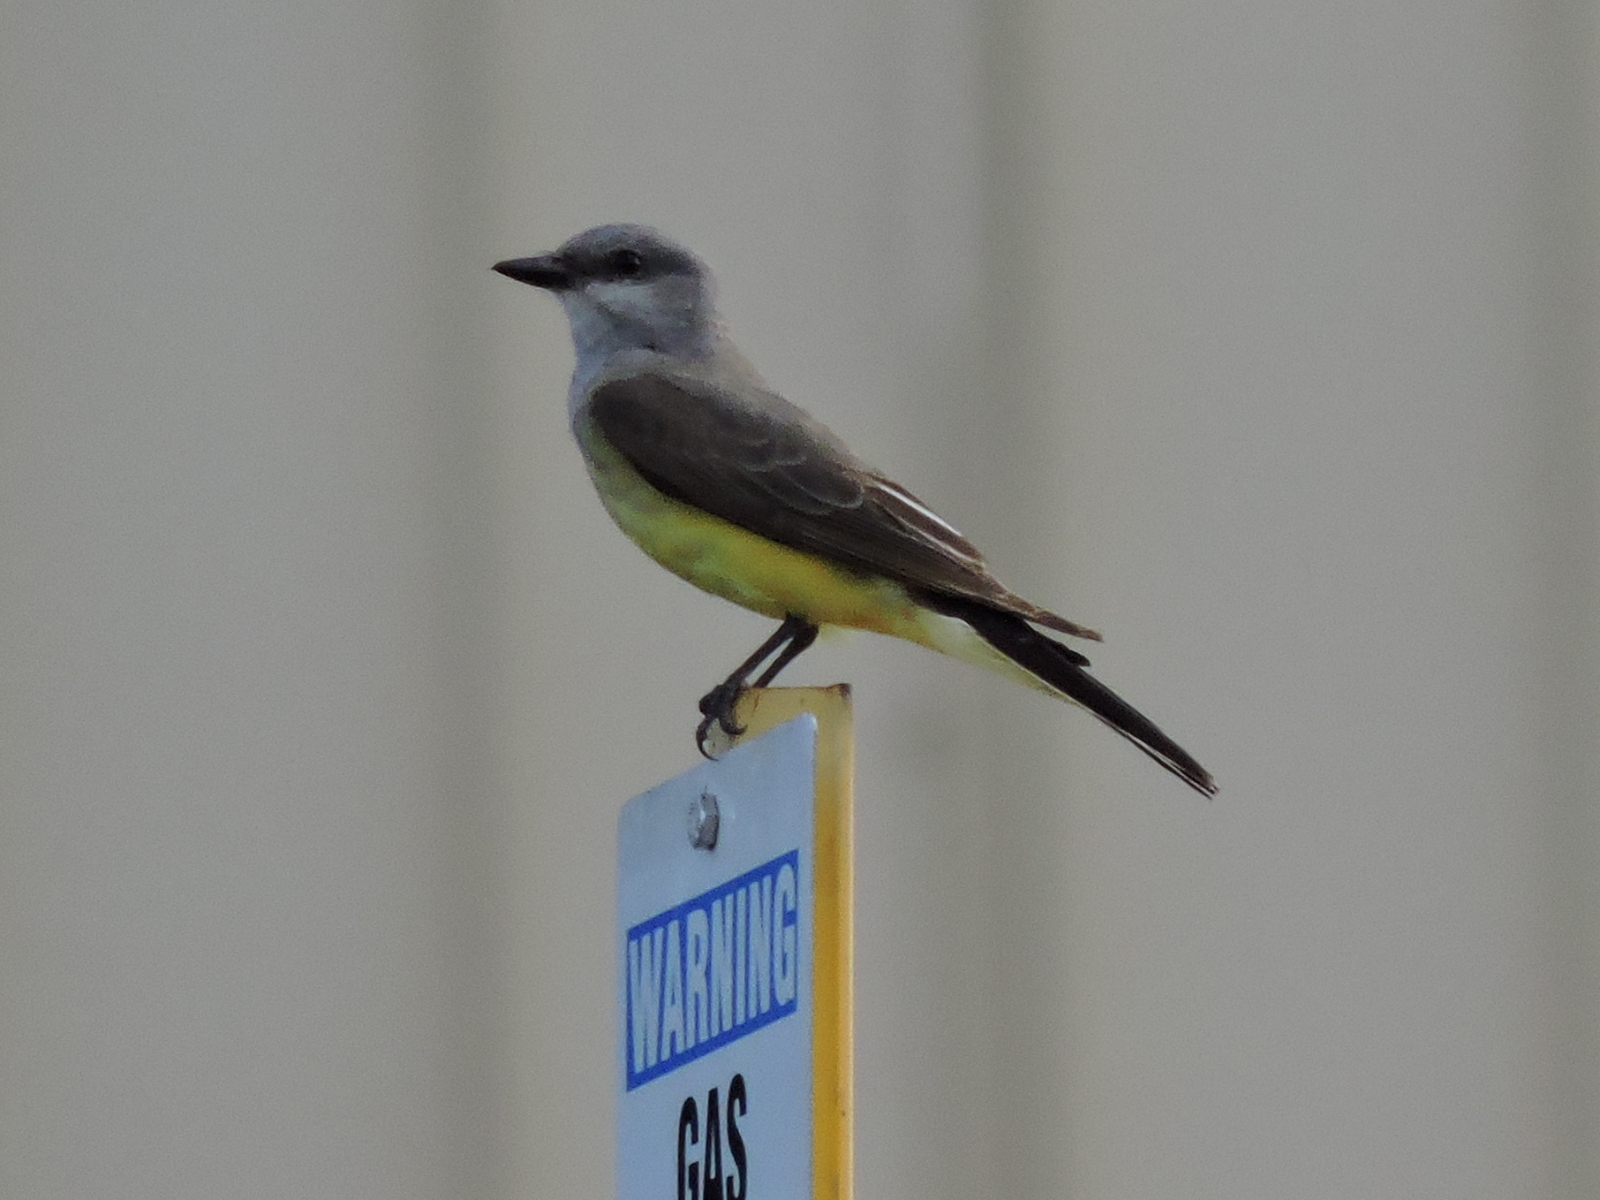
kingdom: Animalia
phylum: Chordata
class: Aves
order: Passeriformes
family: Tyrannidae
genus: Tyrannus
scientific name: Tyrannus verticalis
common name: Western kingbird
